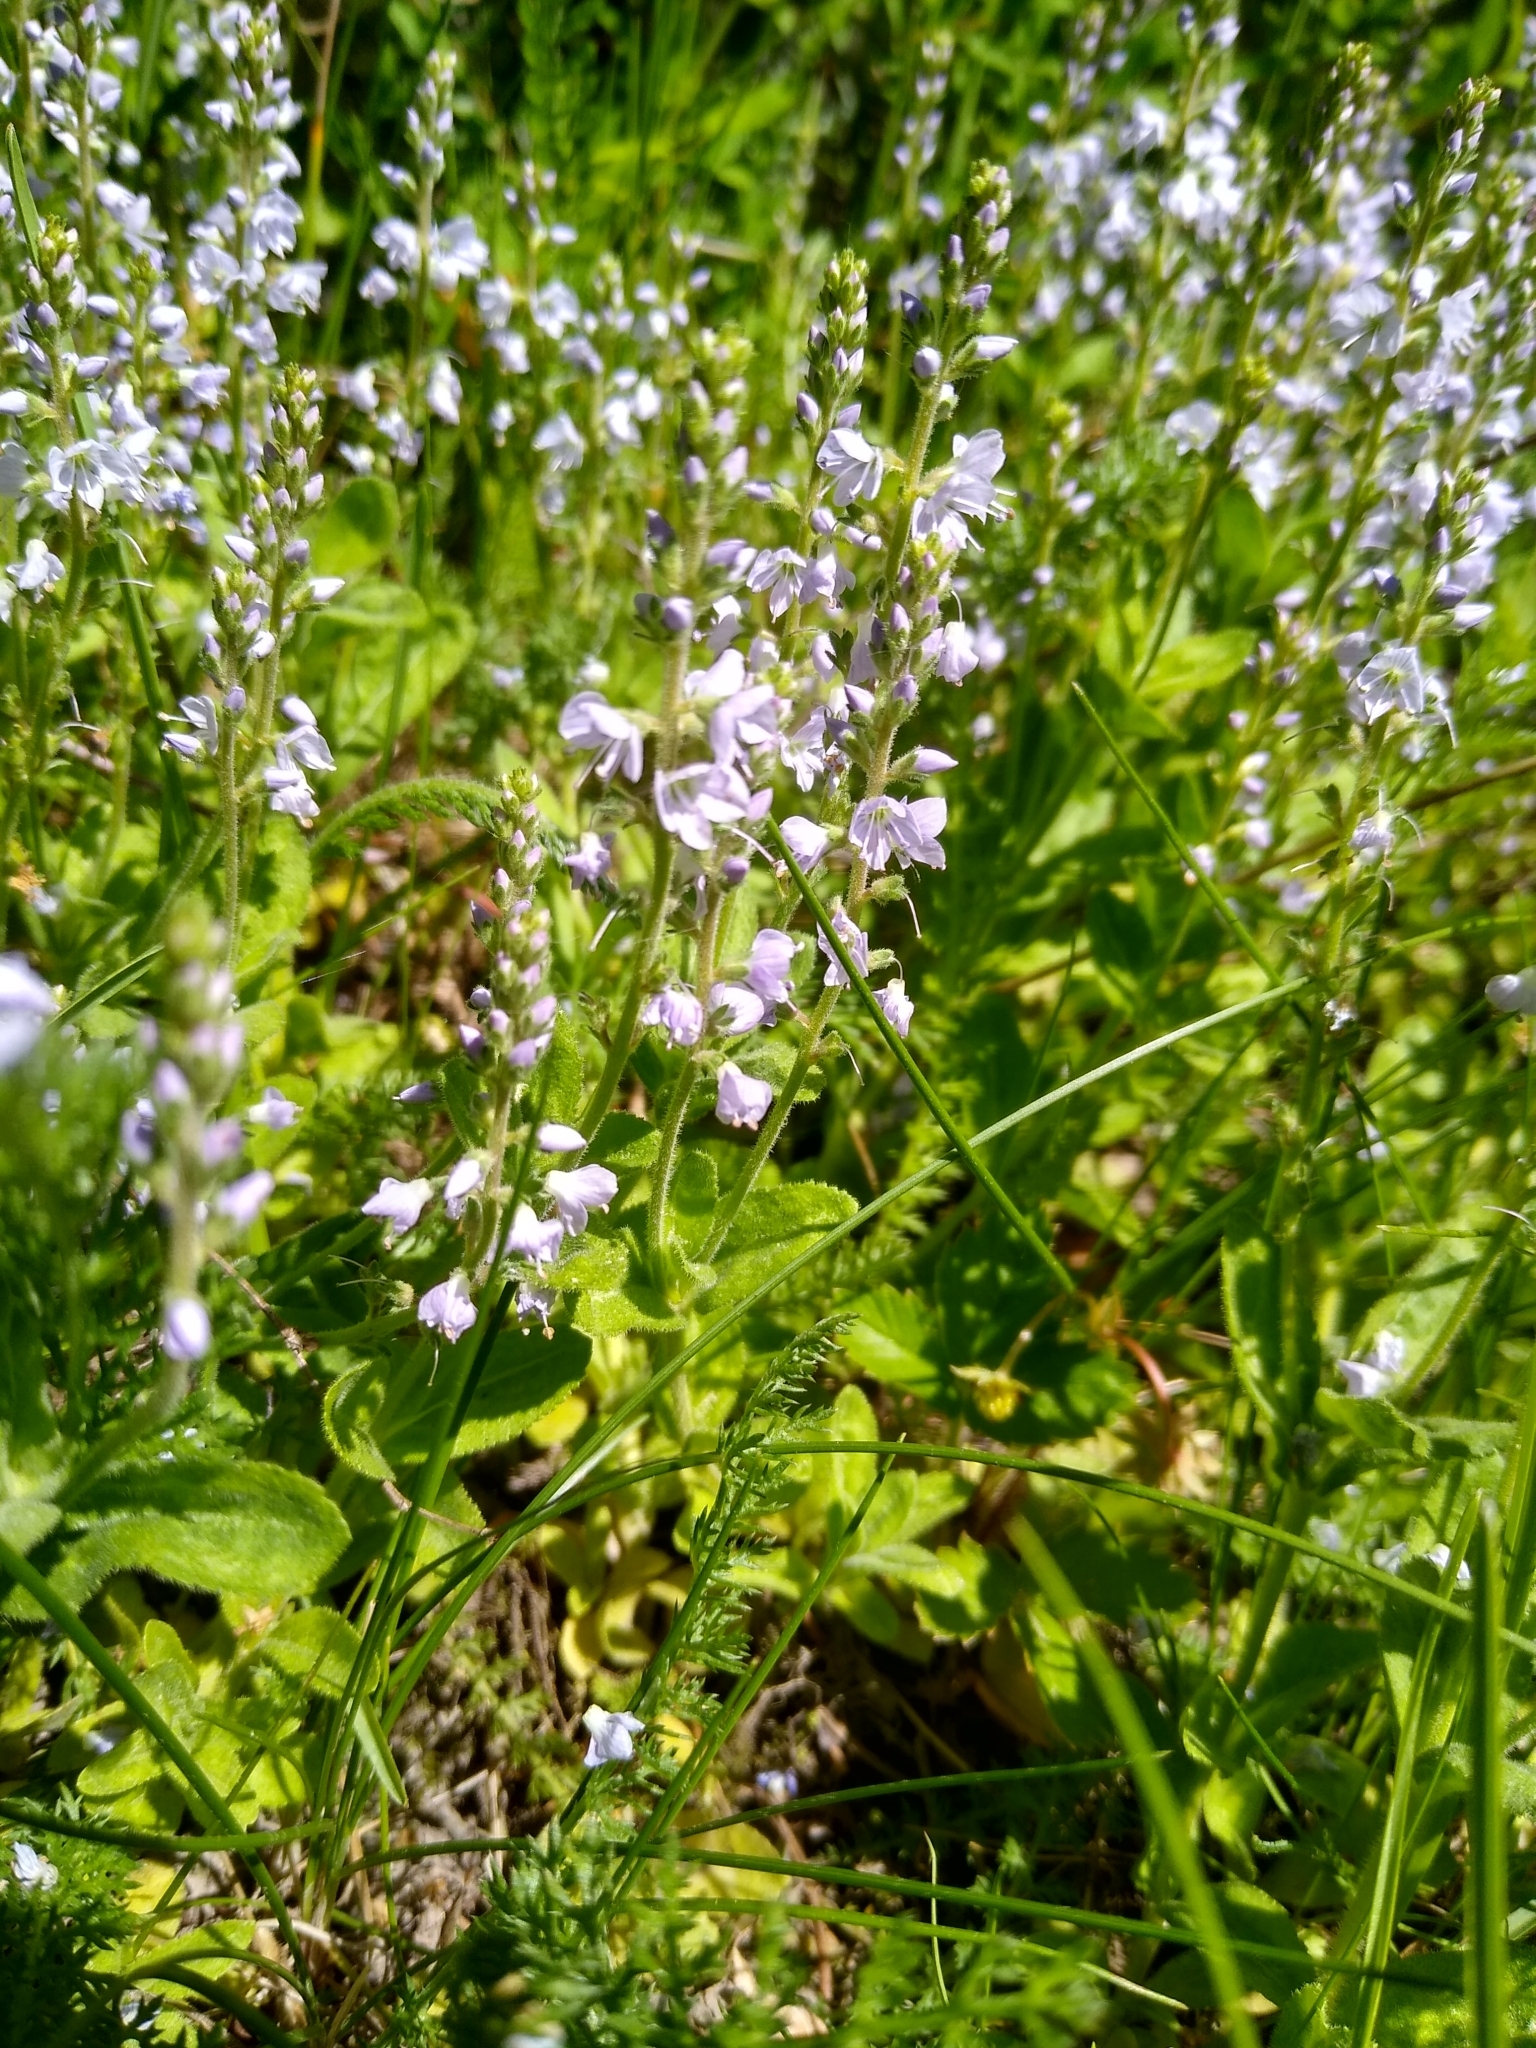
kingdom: Plantae
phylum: Tracheophyta
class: Magnoliopsida
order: Lamiales
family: Plantaginaceae
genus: Veronica
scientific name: Veronica officinalis
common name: Common speedwell
